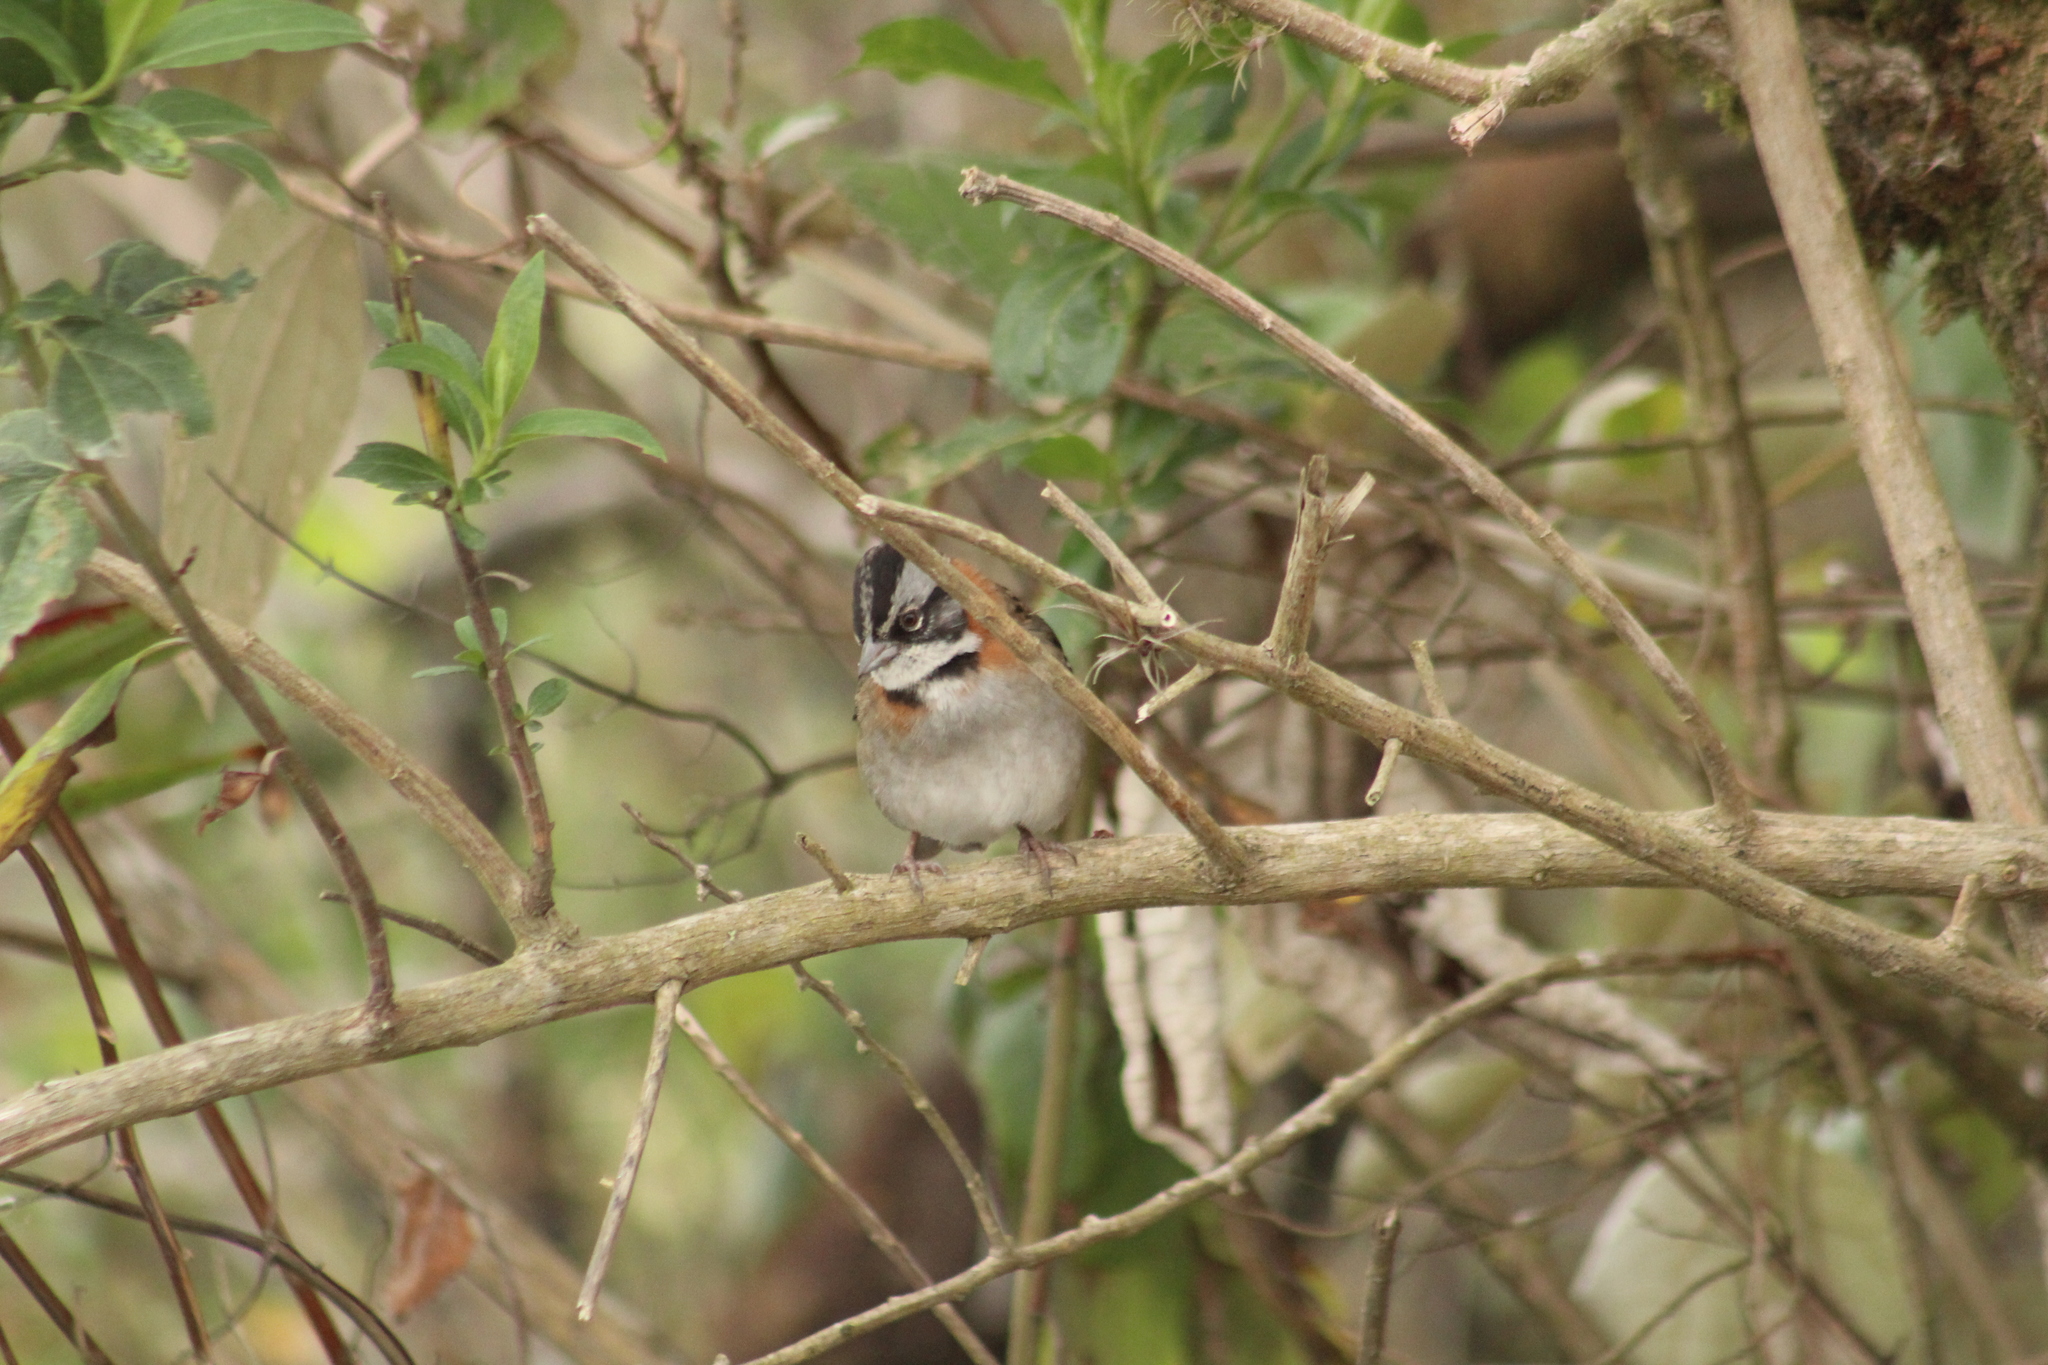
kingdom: Animalia
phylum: Chordata
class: Aves
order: Passeriformes
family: Passerellidae
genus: Zonotrichia
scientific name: Zonotrichia capensis
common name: Rufous-collared sparrow
